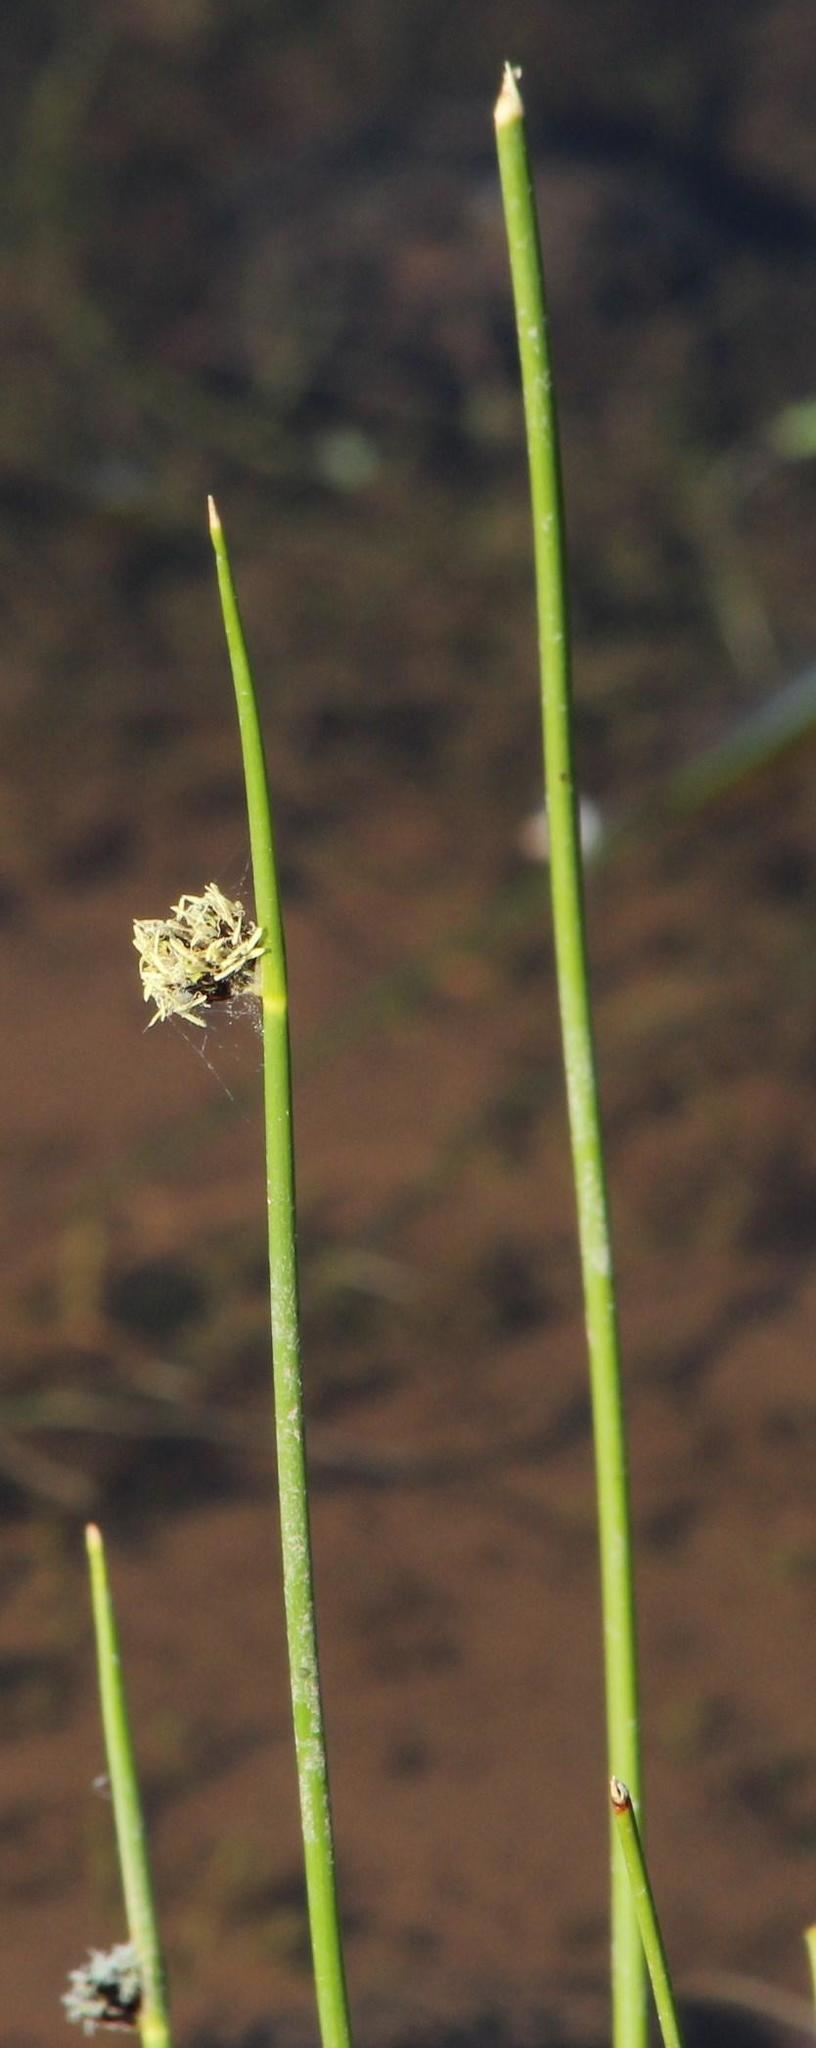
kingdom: Plantae
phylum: Tracheophyta
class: Liliopsida
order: Poales
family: Cyperaceae
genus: Schoenoplectiella
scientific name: Schoenoplectiella decipiens
